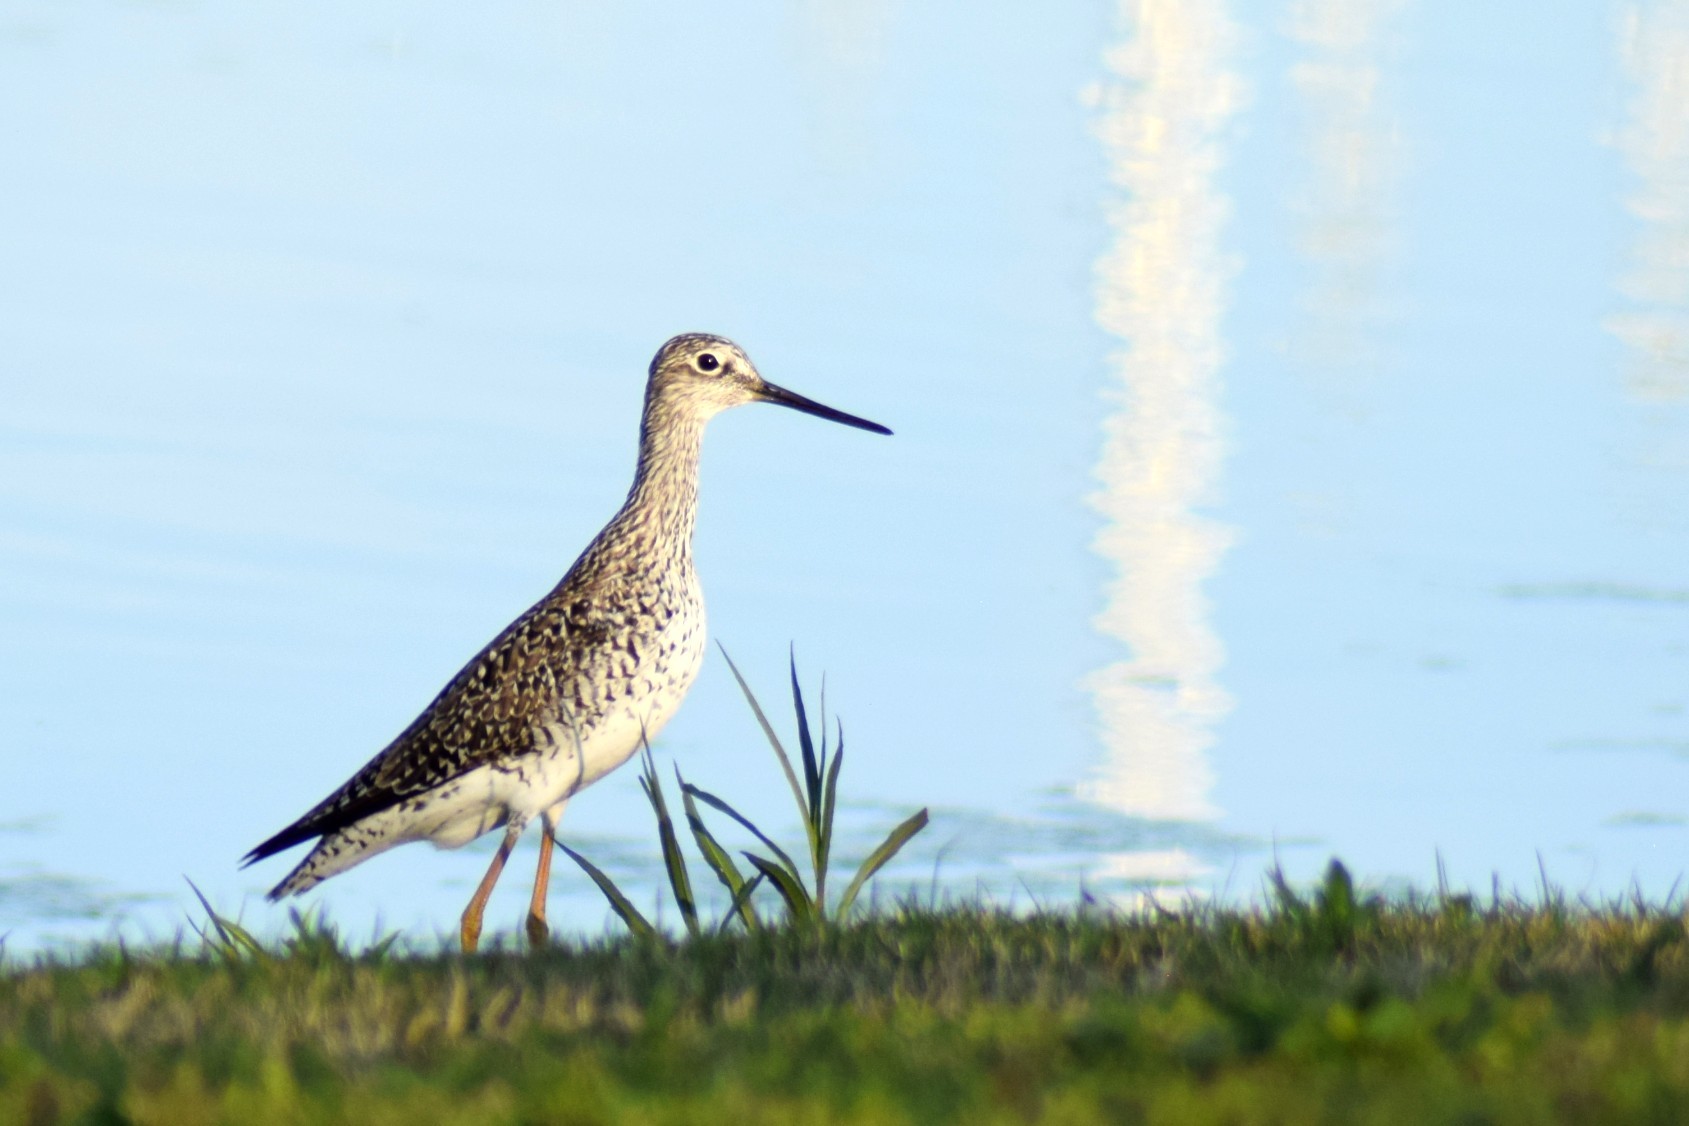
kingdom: Animalia
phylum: Chordata
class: Aves
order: Charadriiformes
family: Scolopacidae
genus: Tringa
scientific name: Tringa melanoleuca
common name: Greater yellowlegs
